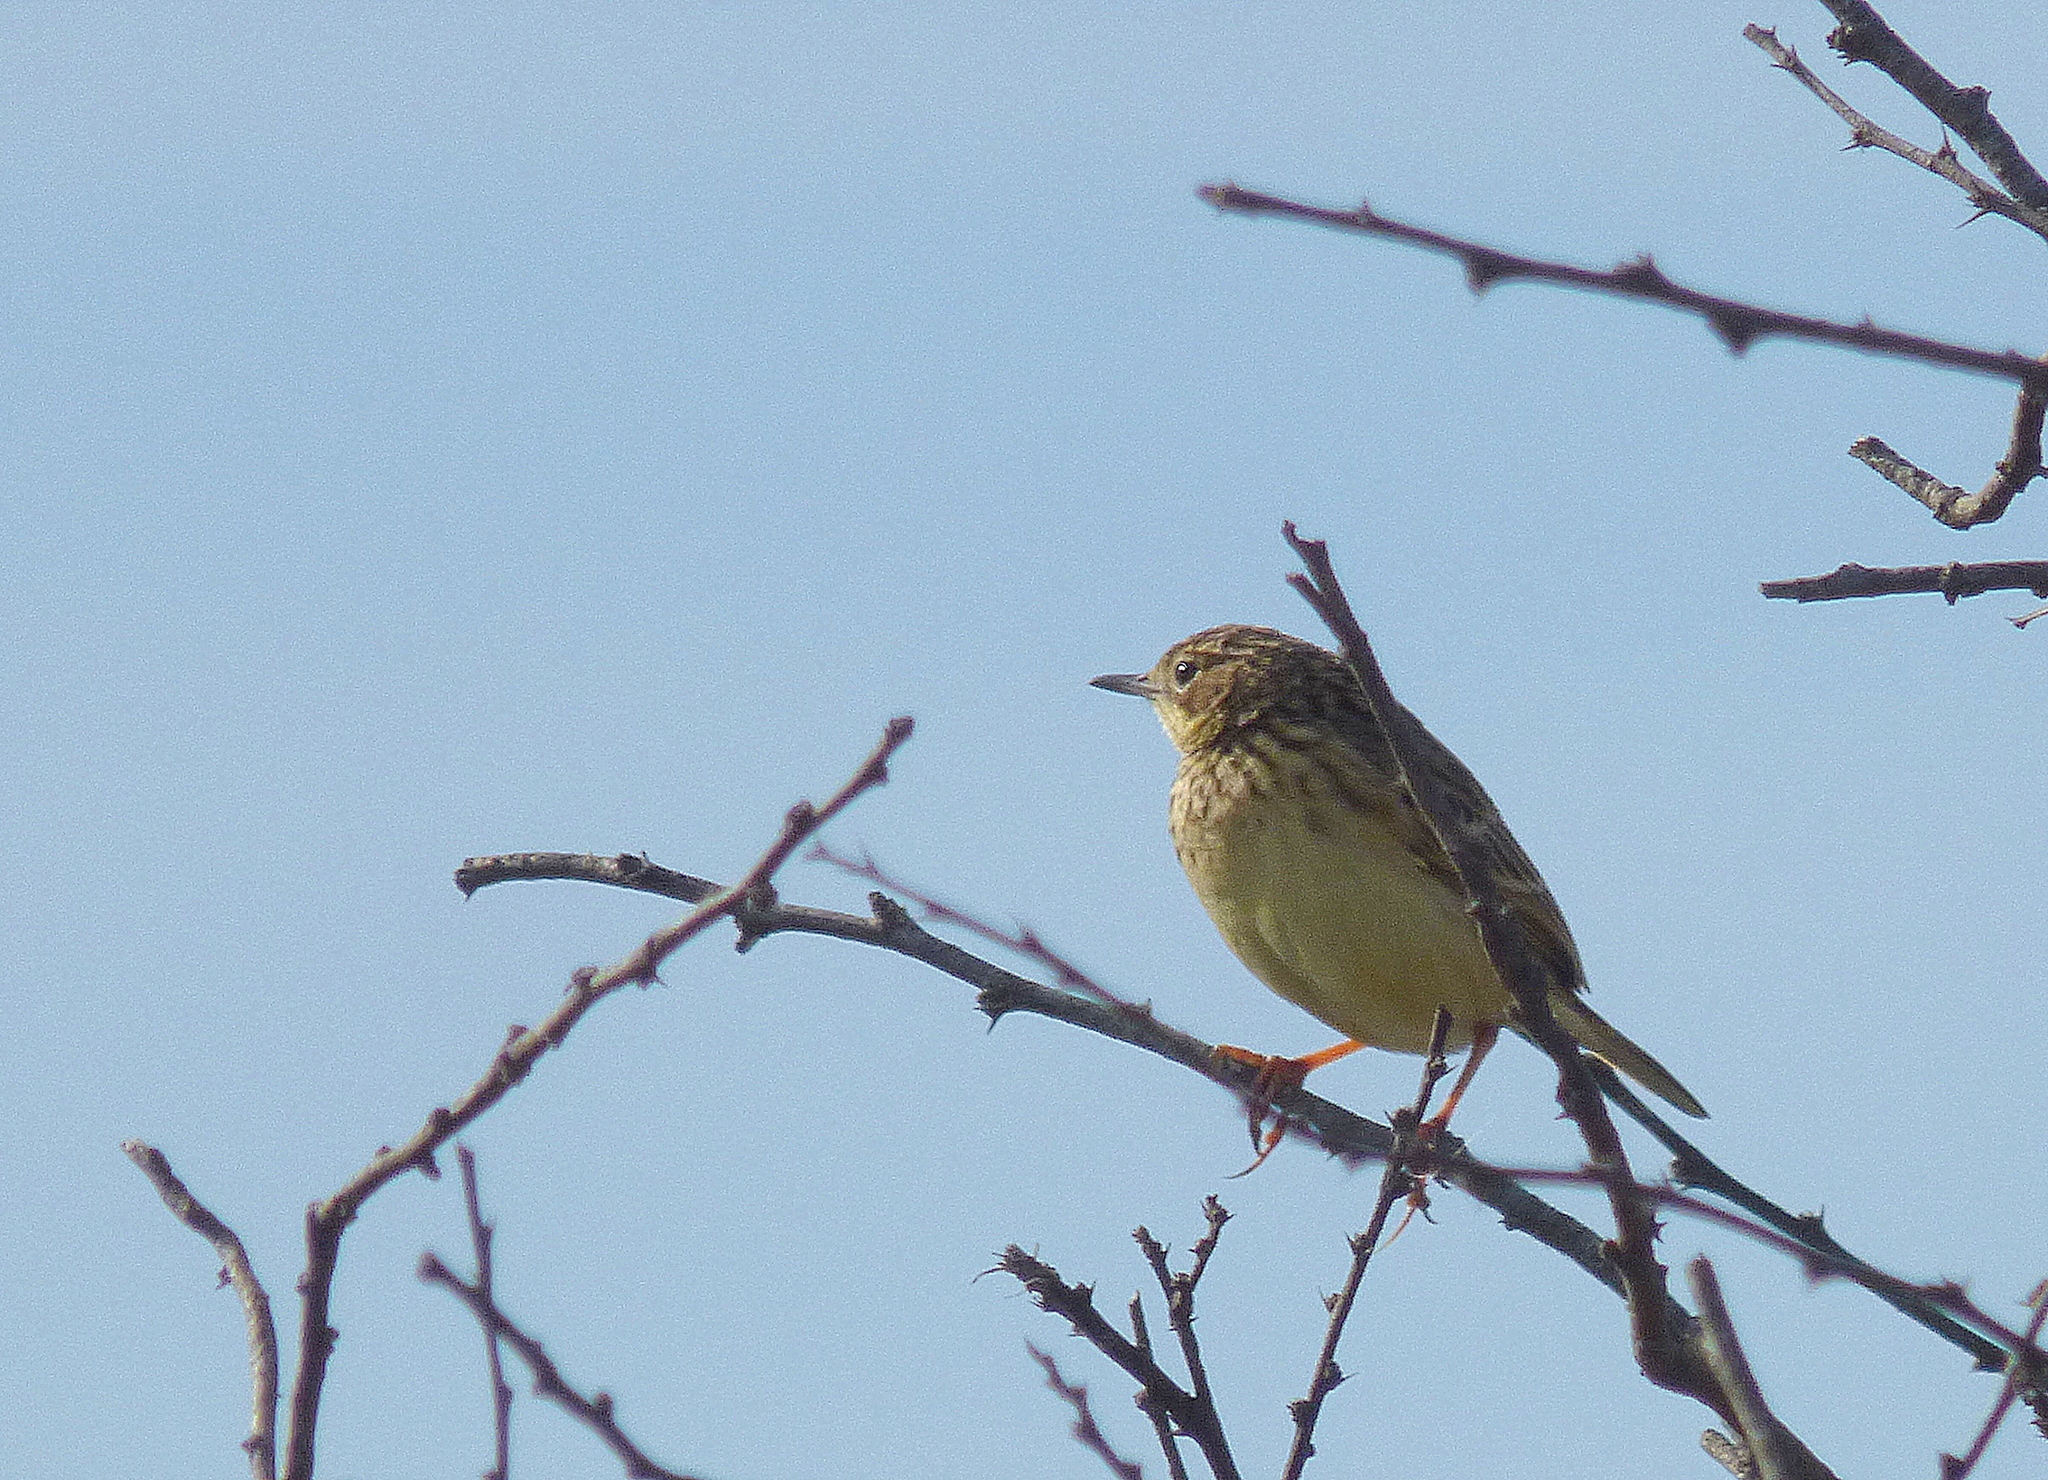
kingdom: Animalia
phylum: Chordata
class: Aves
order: Passeriformes
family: Motacillidae
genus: Anthus
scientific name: Anthus chii
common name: Yellowish pipit
